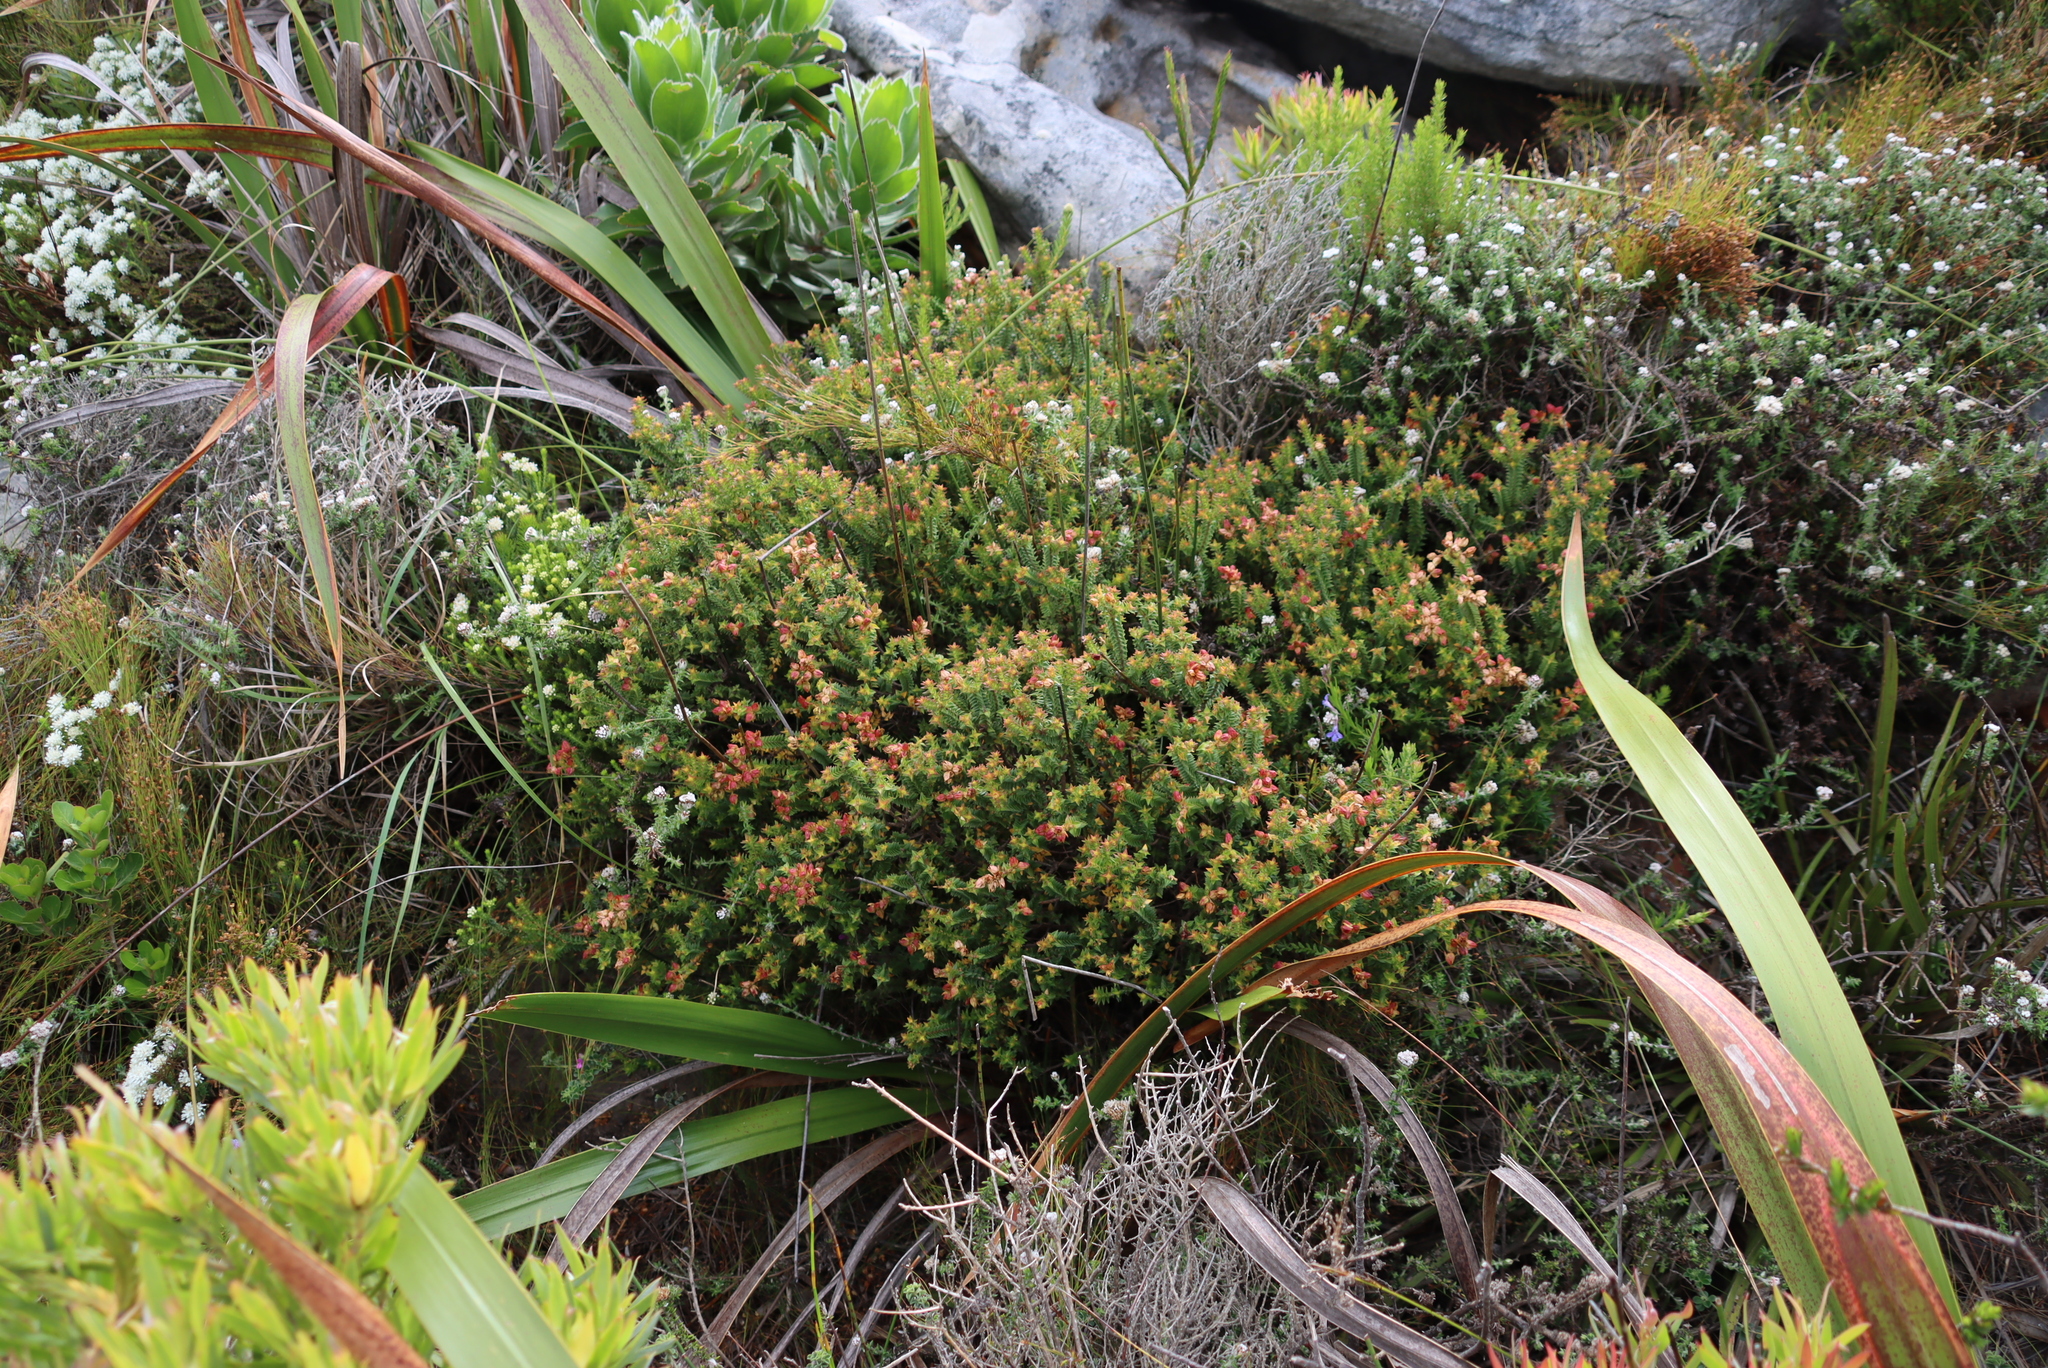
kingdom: Plantae
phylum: Tracheophyta
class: Magnoliopsida
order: Myrtales
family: Penaeaceae
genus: Penaea
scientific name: Penaea mucronata
